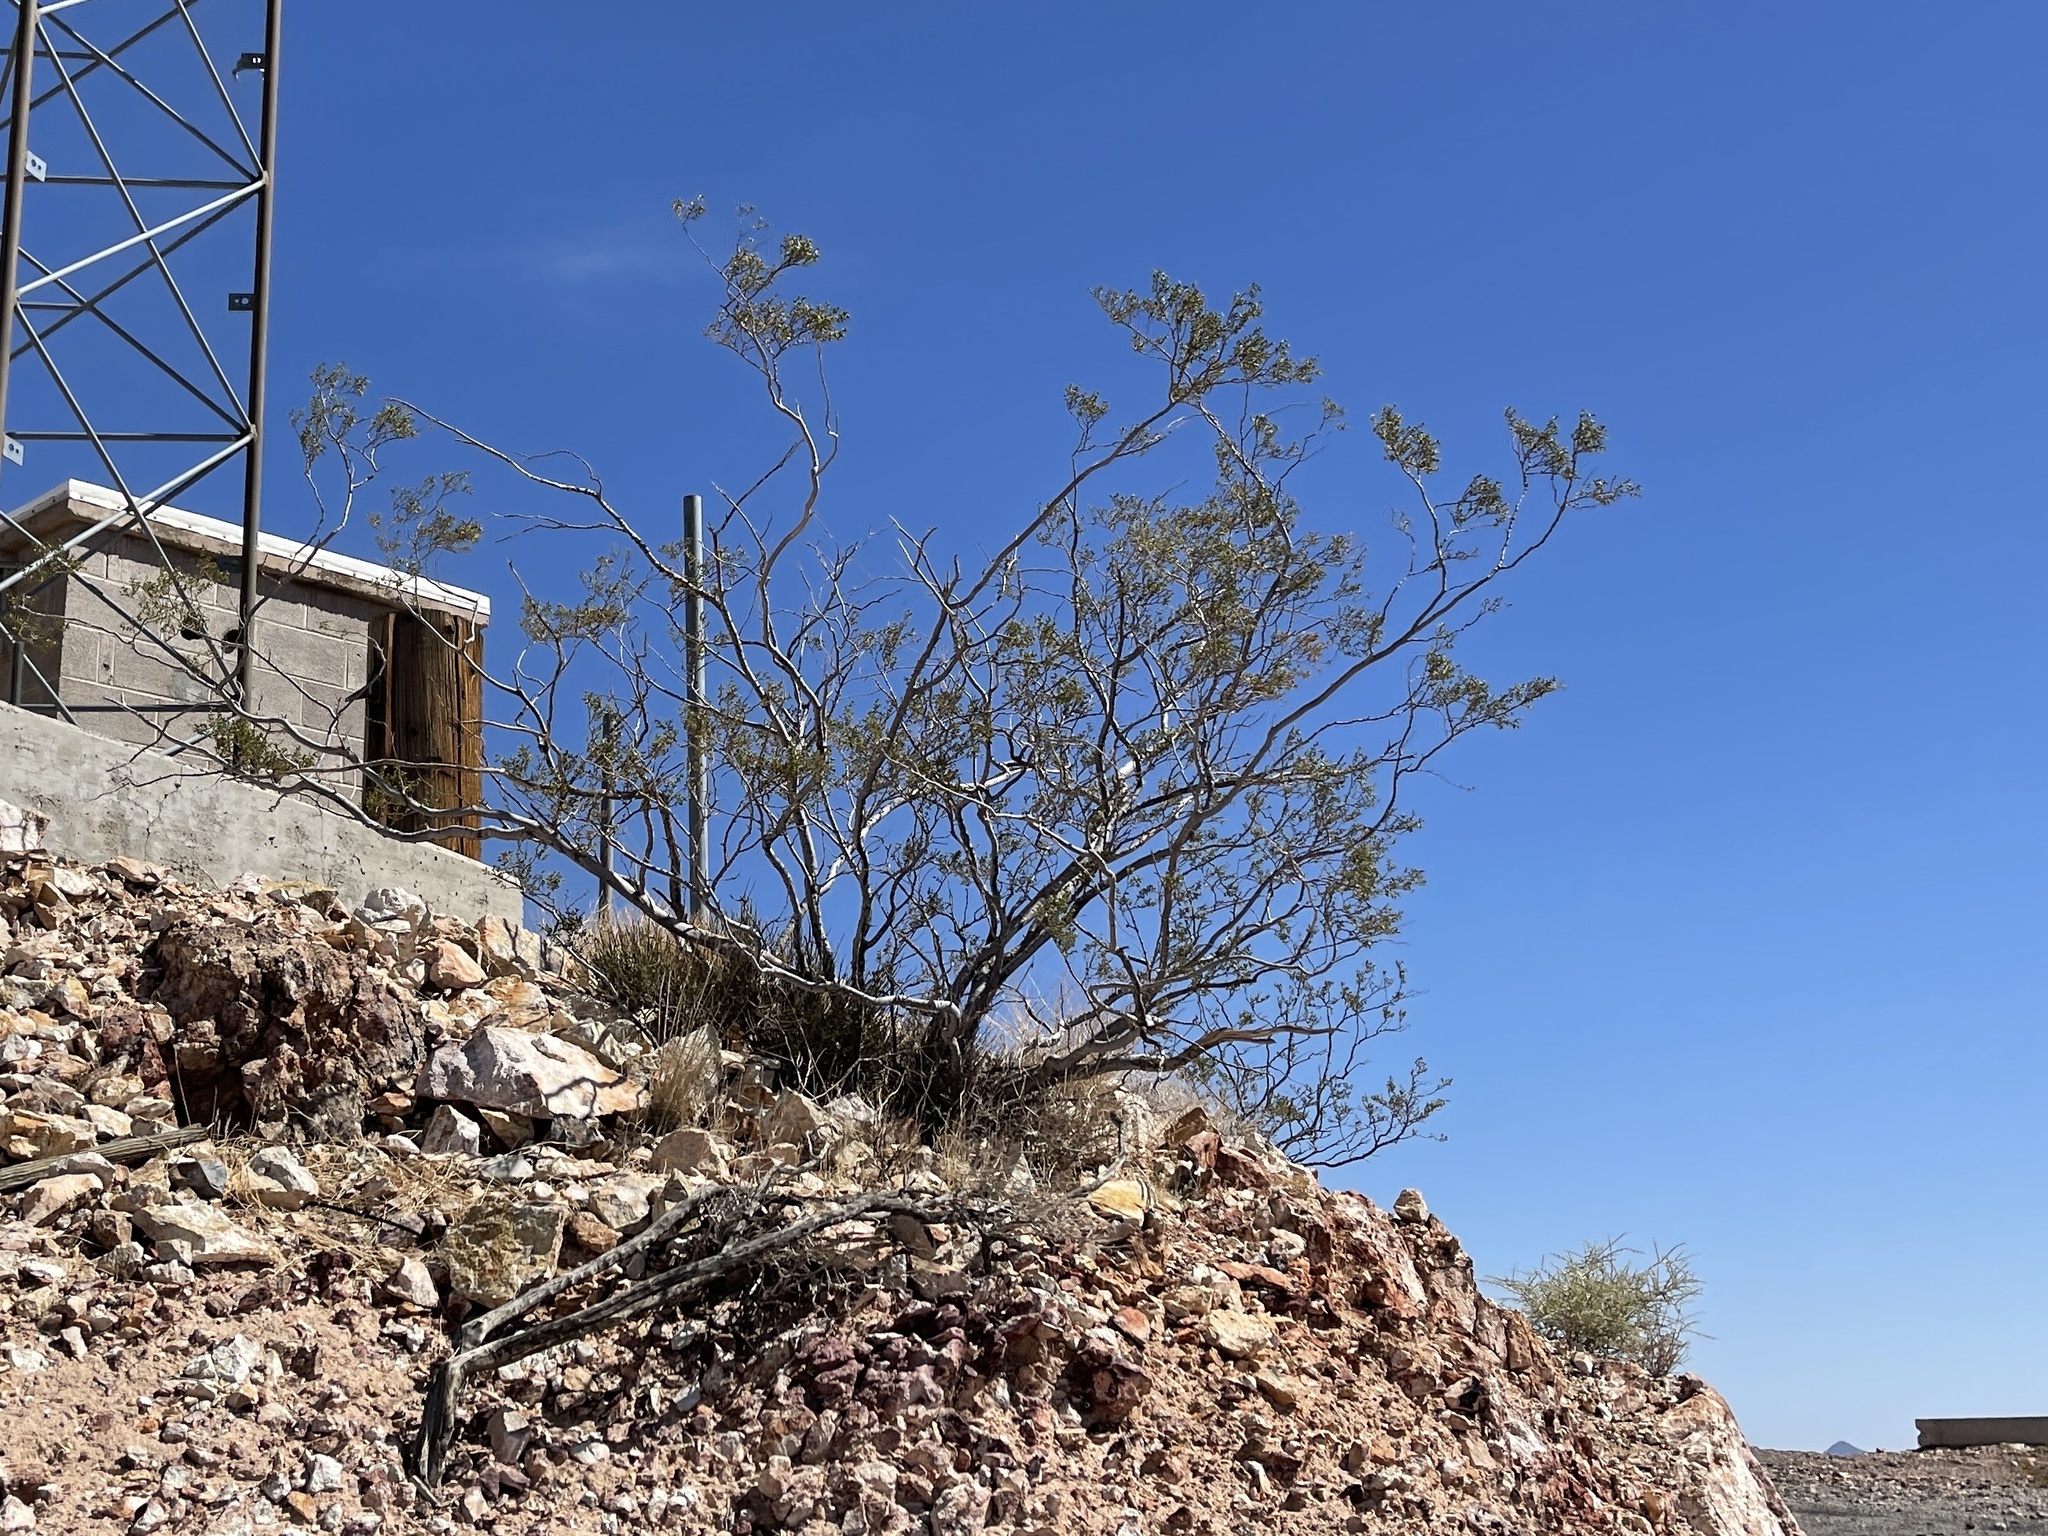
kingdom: Plantae
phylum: Tracheophyta
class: Magnoliopsida
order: Zygophyllales
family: Zygophyllaceae
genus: Larrea
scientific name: Larrea tridentata
